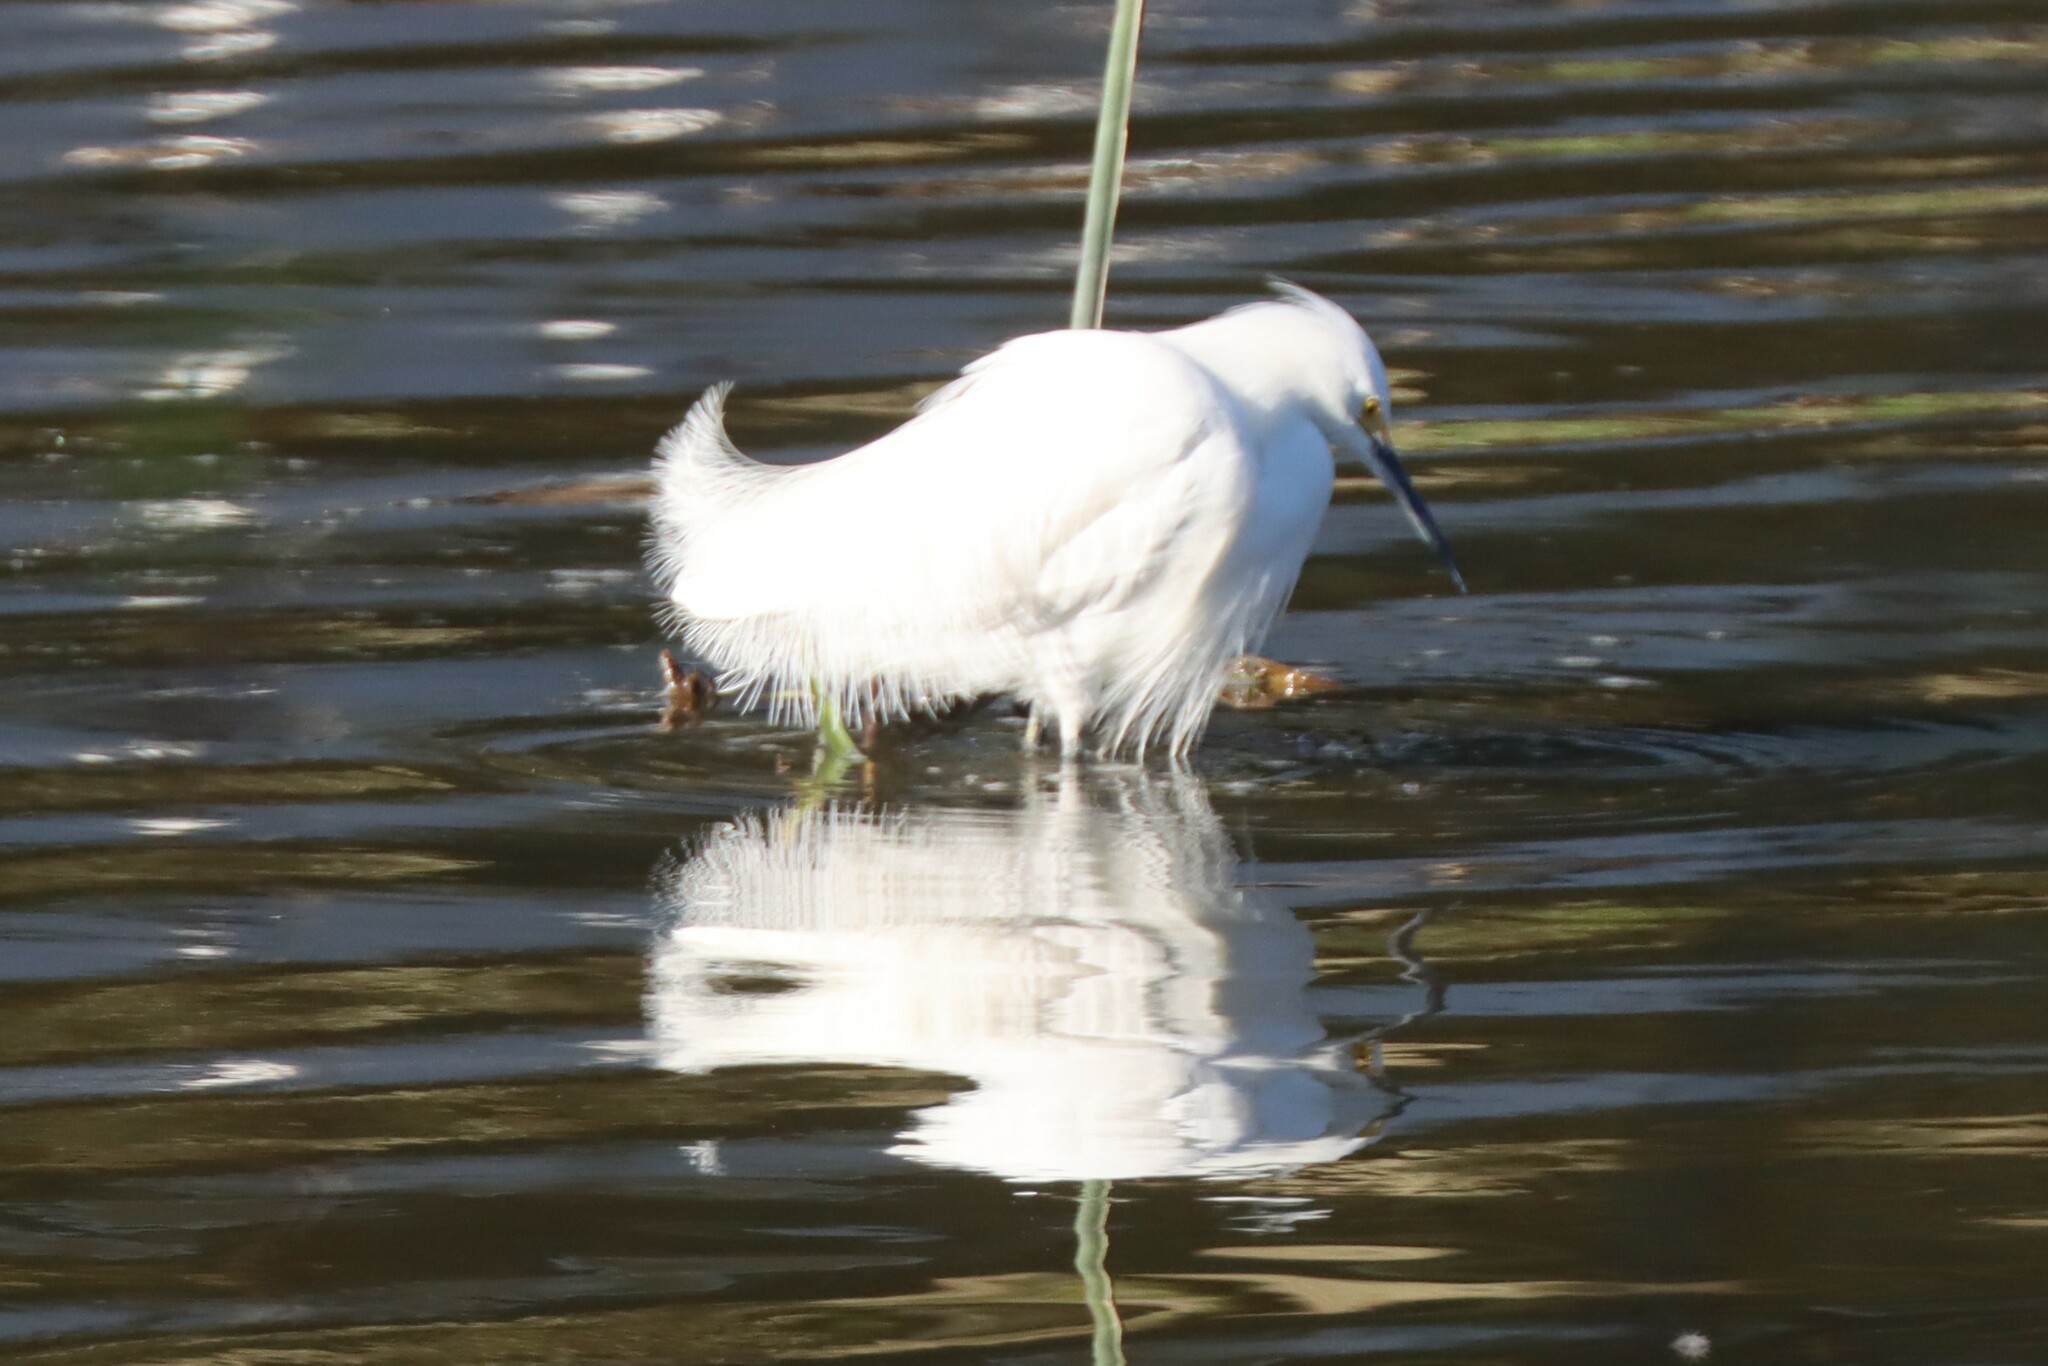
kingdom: Animalia
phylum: Chordata
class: Aves
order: Pelecaniformes
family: Ardeidae
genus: Egretta
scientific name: Egretta thula
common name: Snowy egret
